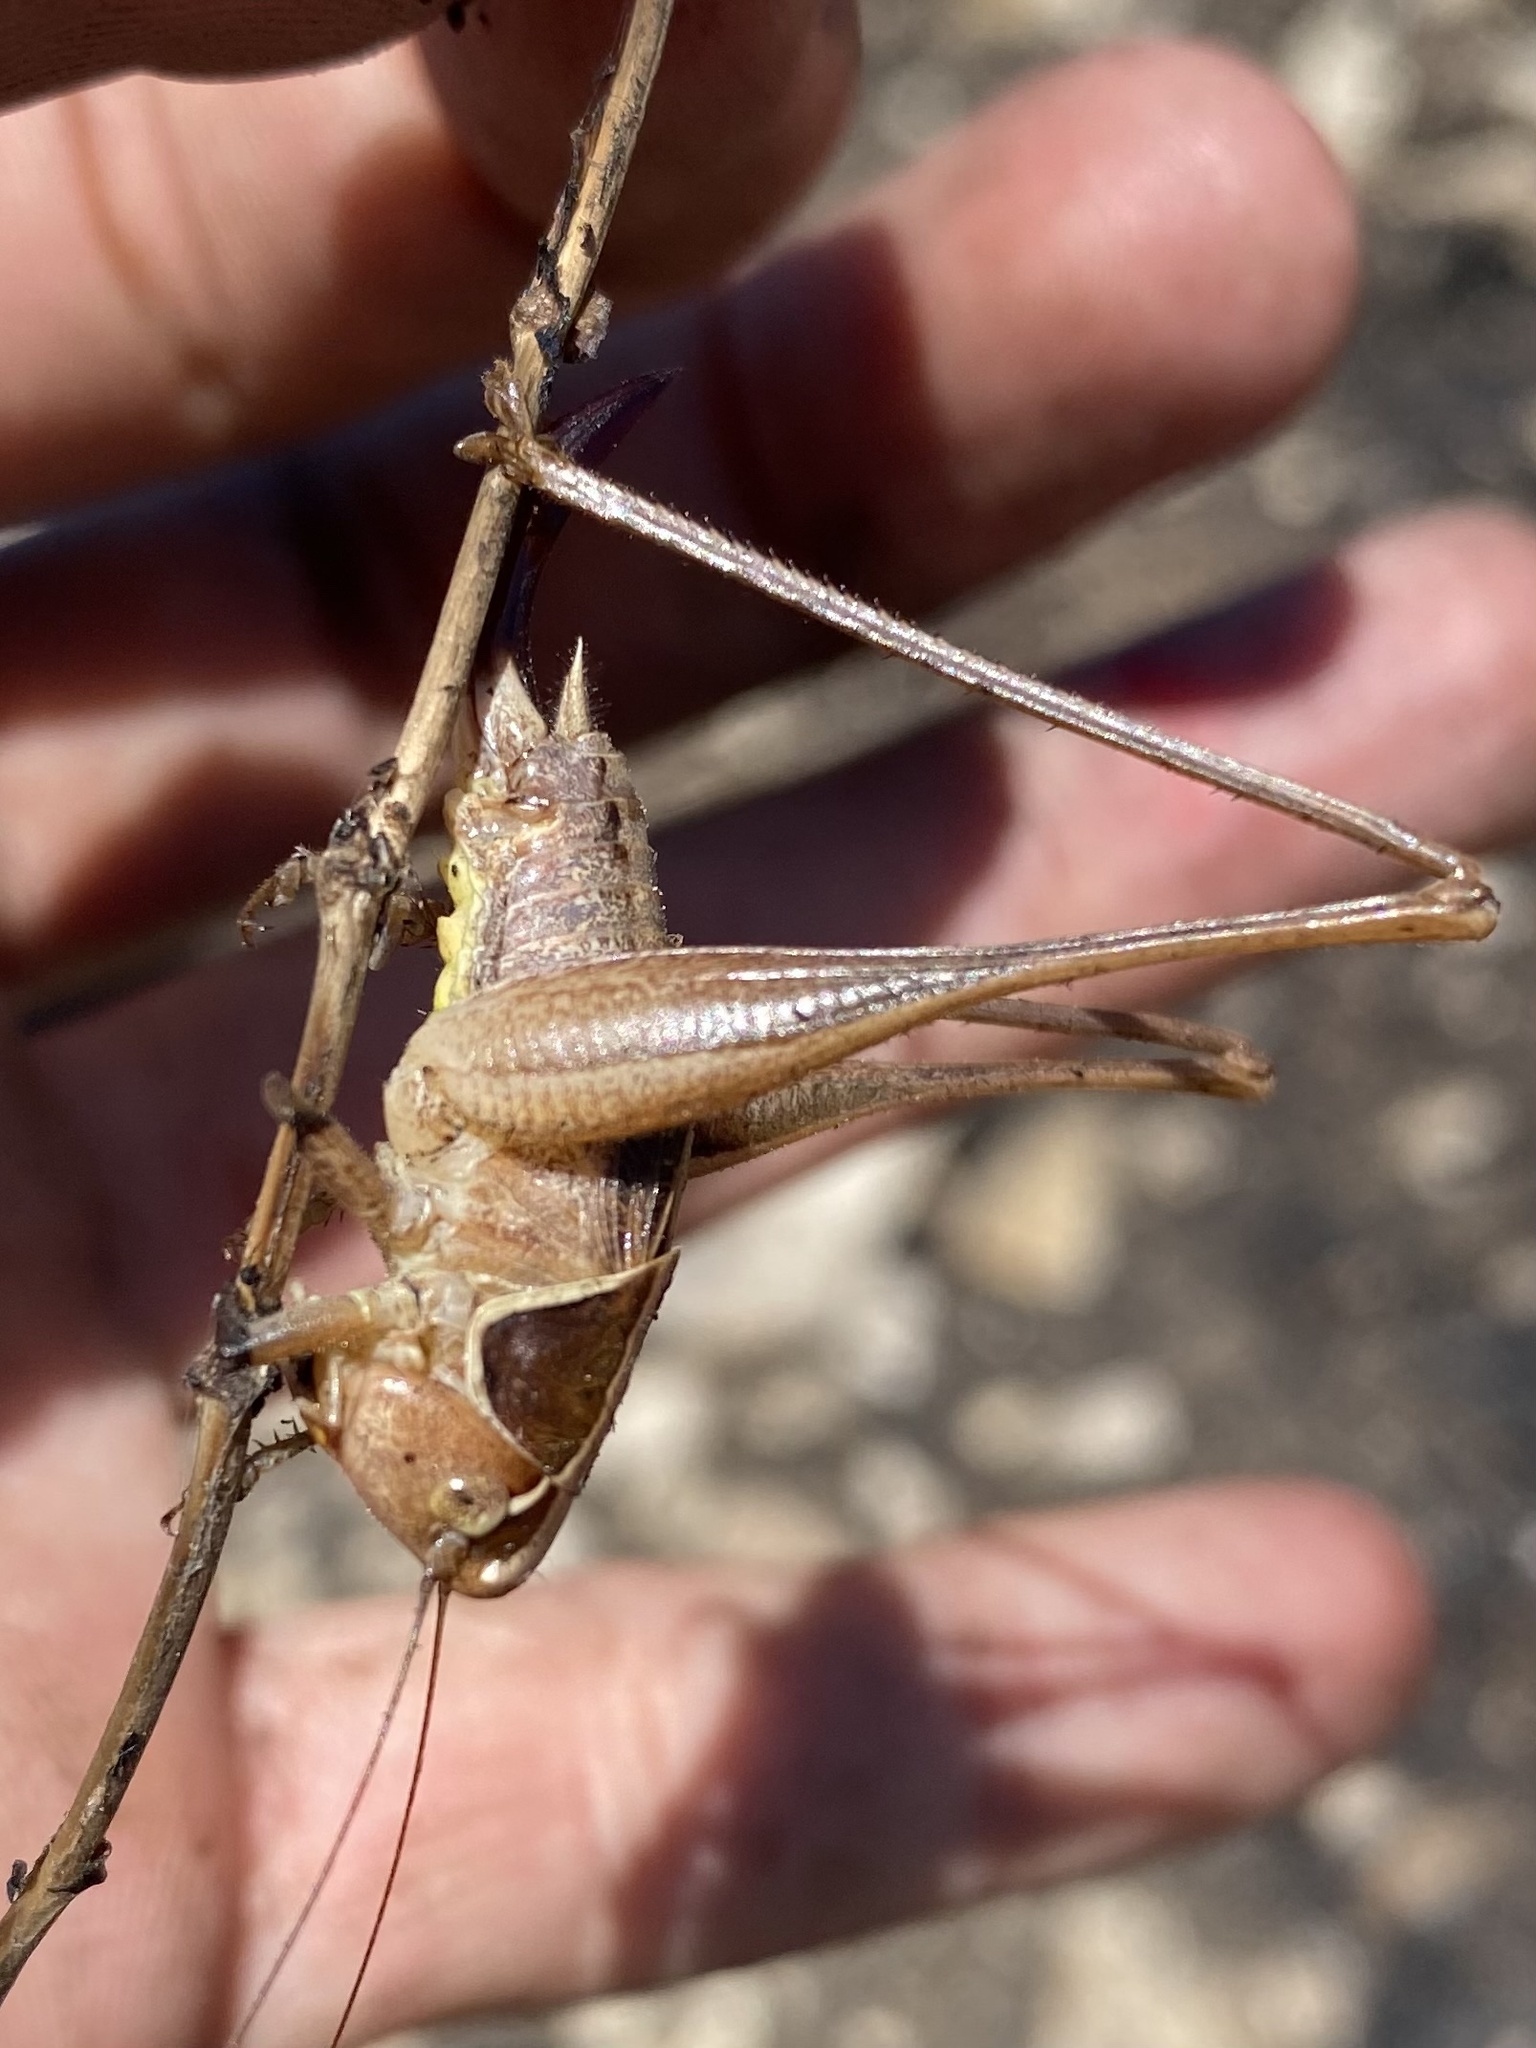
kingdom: Animalia
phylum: Arthropoda
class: Insecta
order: Orthoptera
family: Tettigoniidae
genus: Sepiana
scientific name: Sepiana sepium
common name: Sepia bush-cricket
